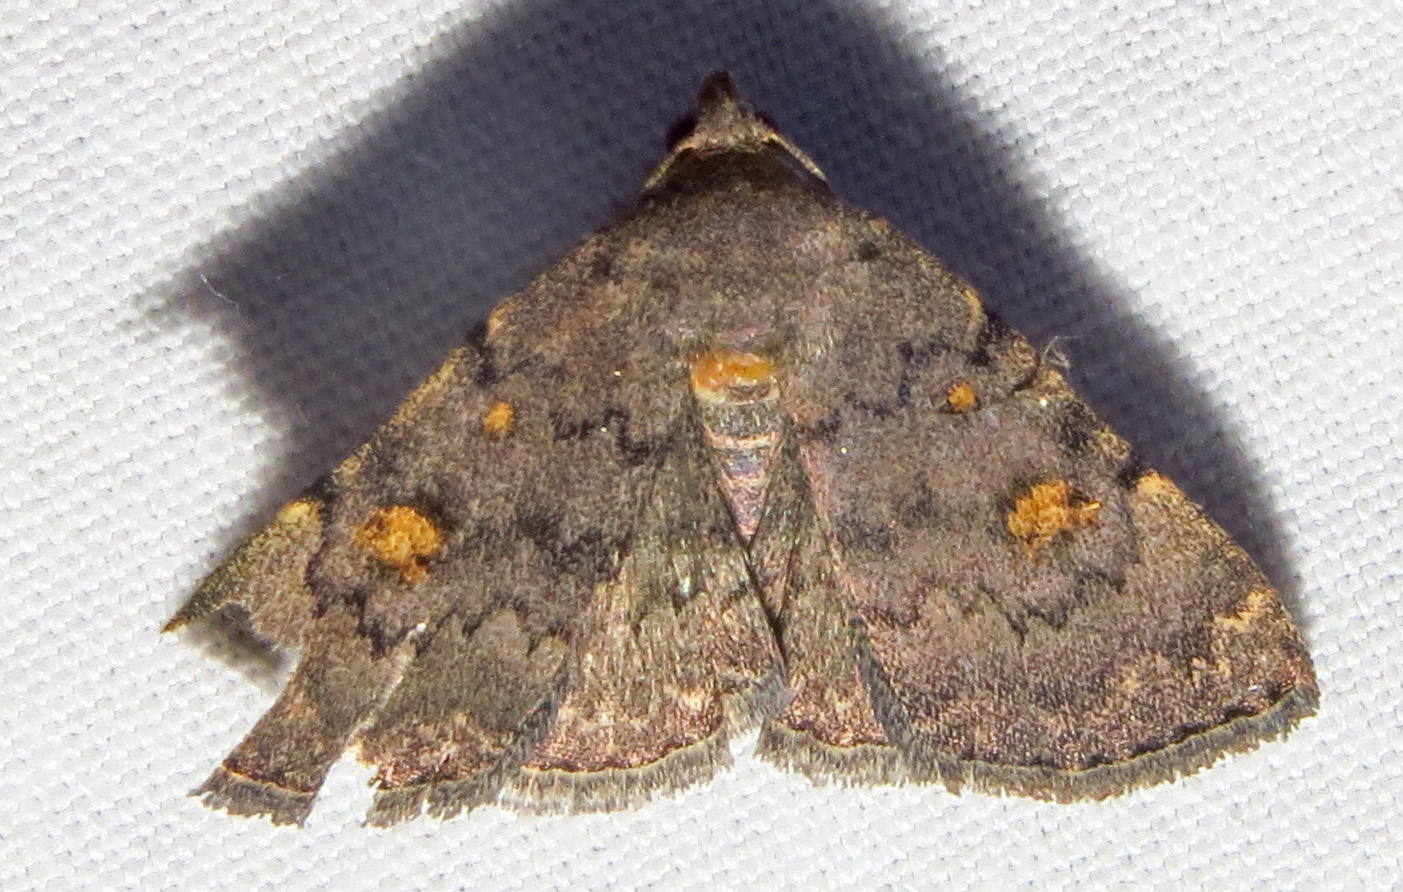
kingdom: Animalia
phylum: Arthropoda
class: Insecta
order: Lepidoptera
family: Erebidae
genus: Idia
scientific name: Idia aemula
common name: Common idia moth
